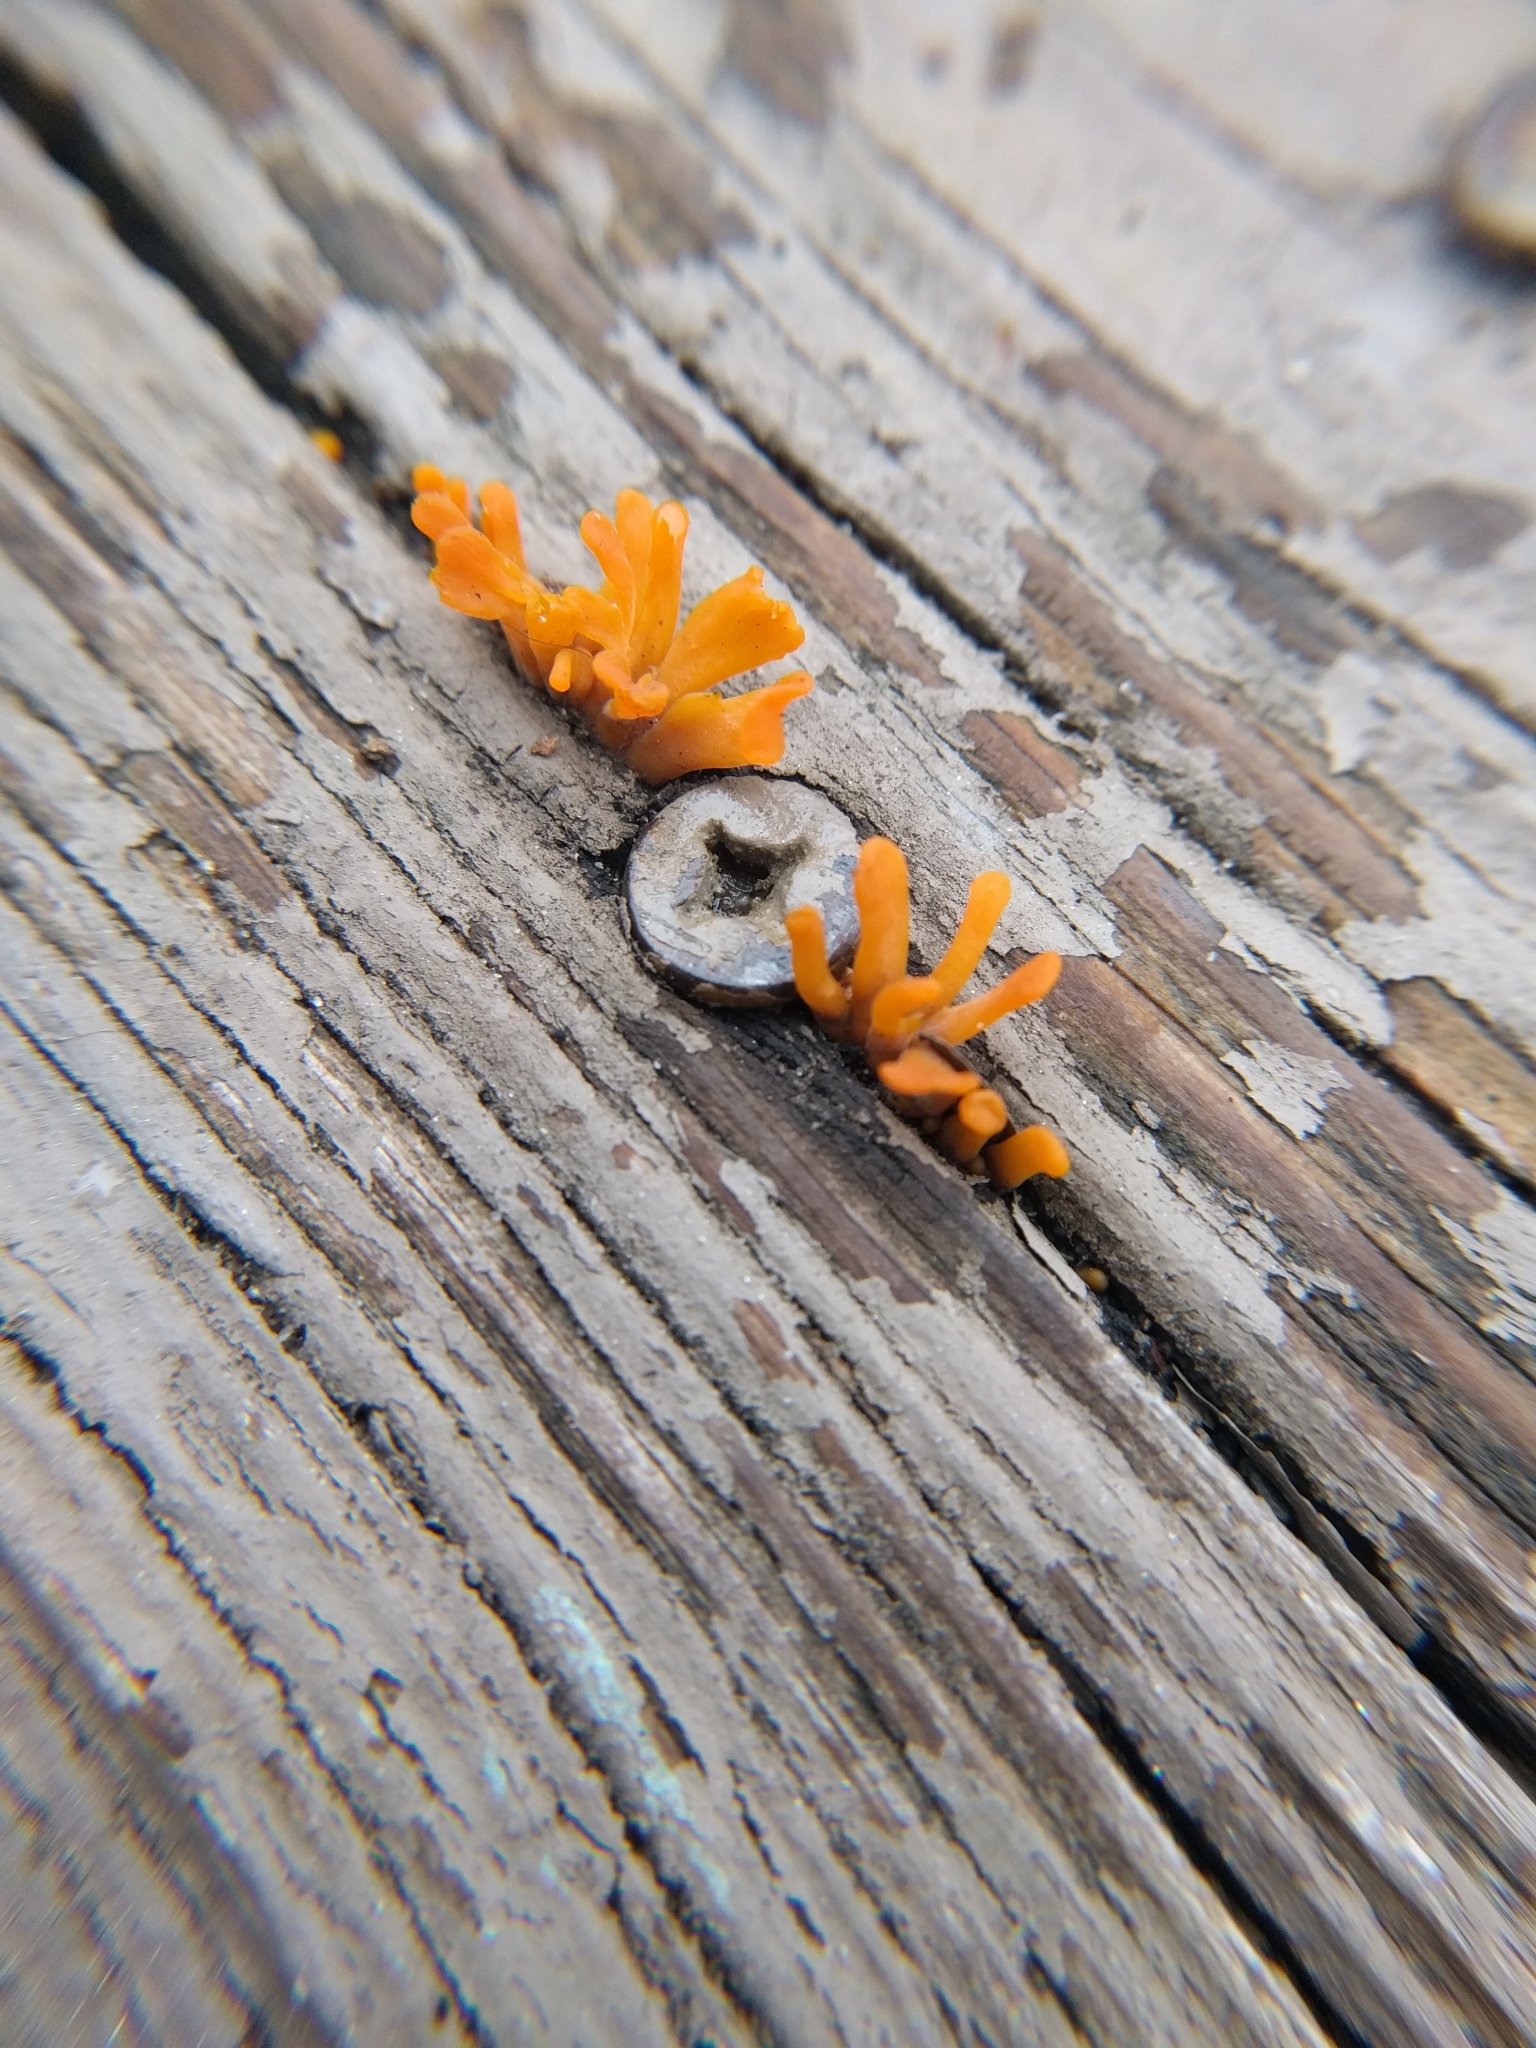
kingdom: Fungi
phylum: Basidiomycota
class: Dacrymycetes
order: Dacrymycetales
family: Dacrymycetaceae
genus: Dacrymyces
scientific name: Dacrymyces spathularius
